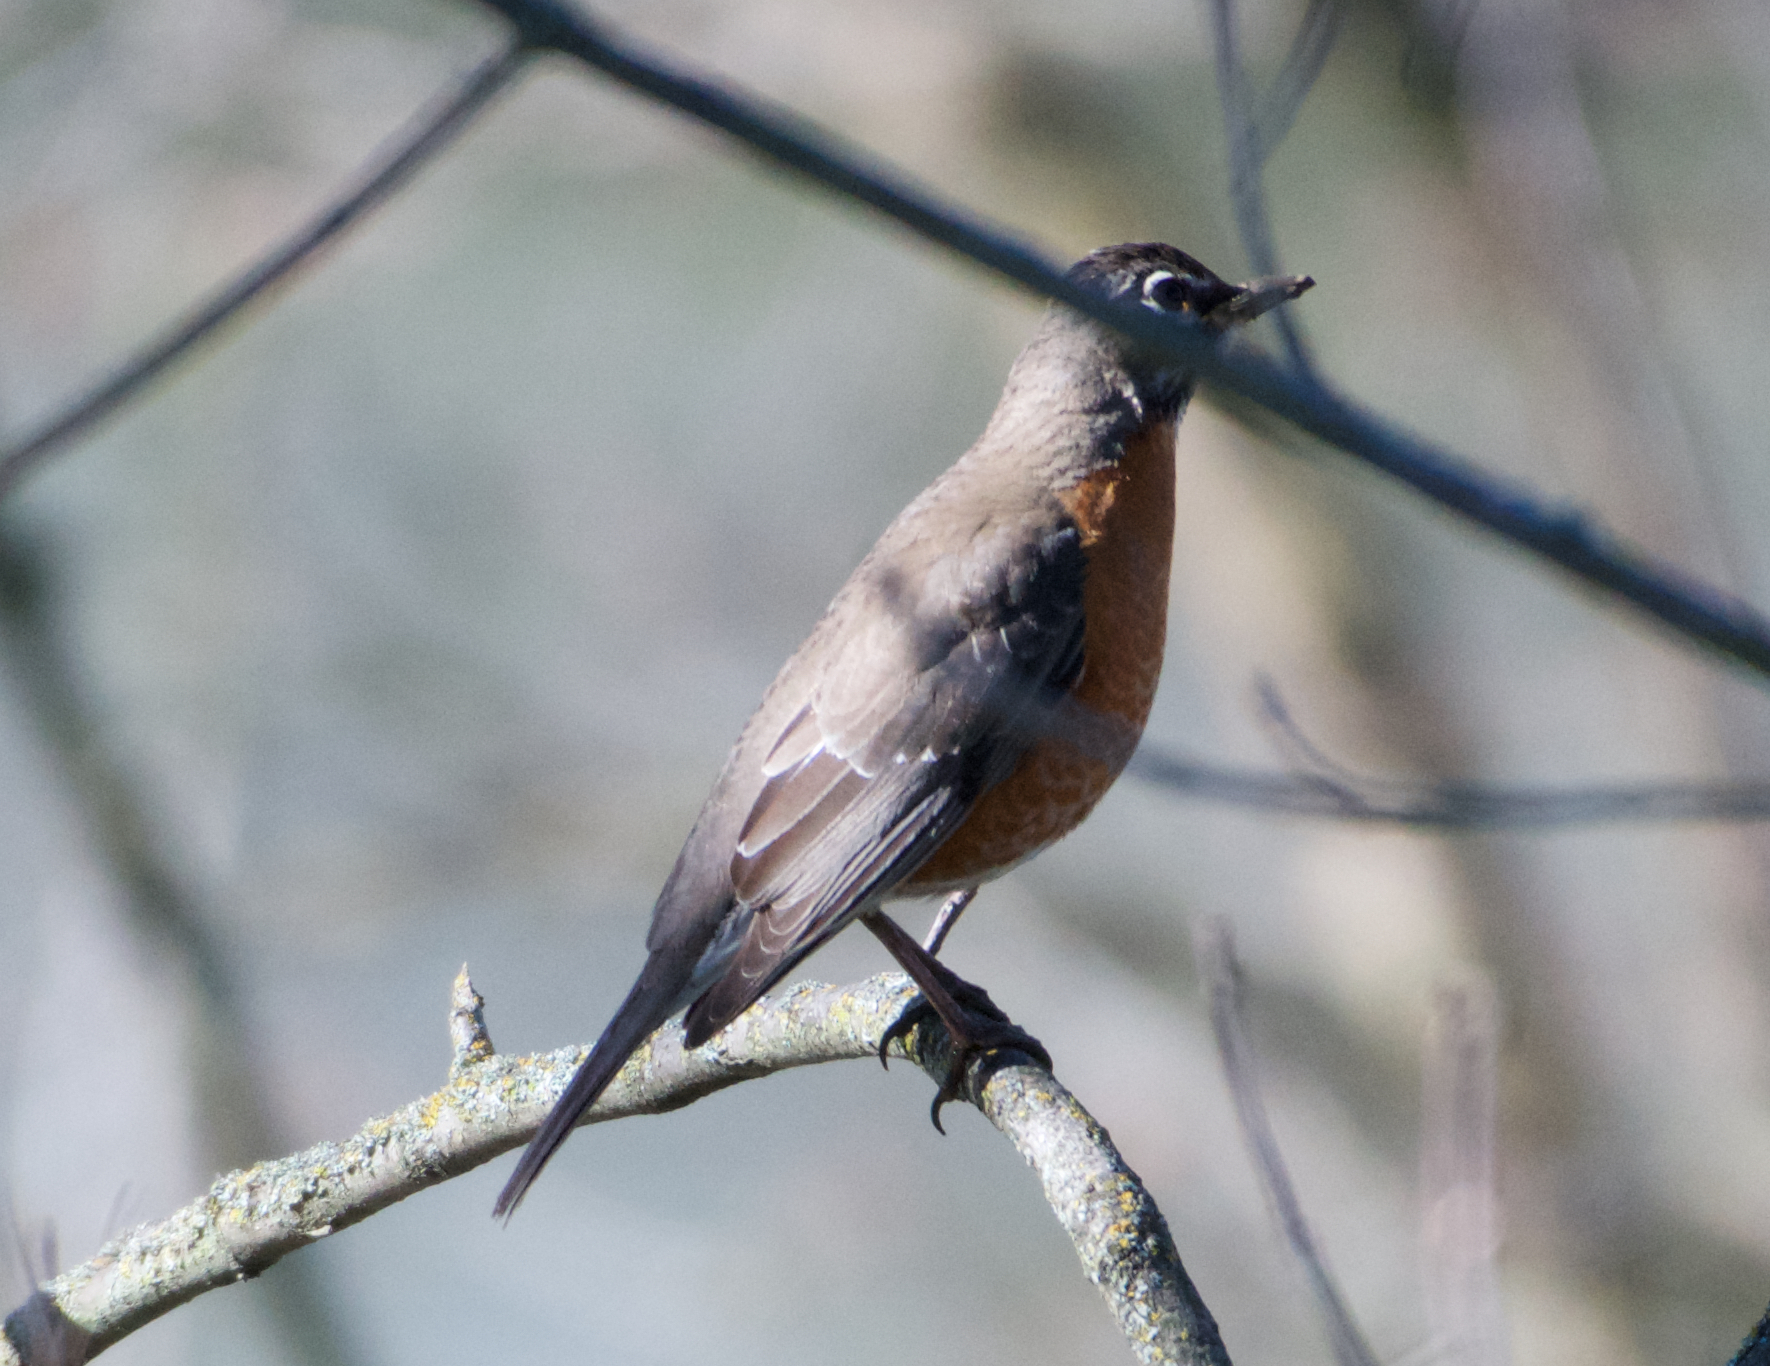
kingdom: Animalia
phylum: Chordata
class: Aves
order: Passeriformes
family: Turdidae
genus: Turdus
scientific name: Turdus migratorius
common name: American robin
